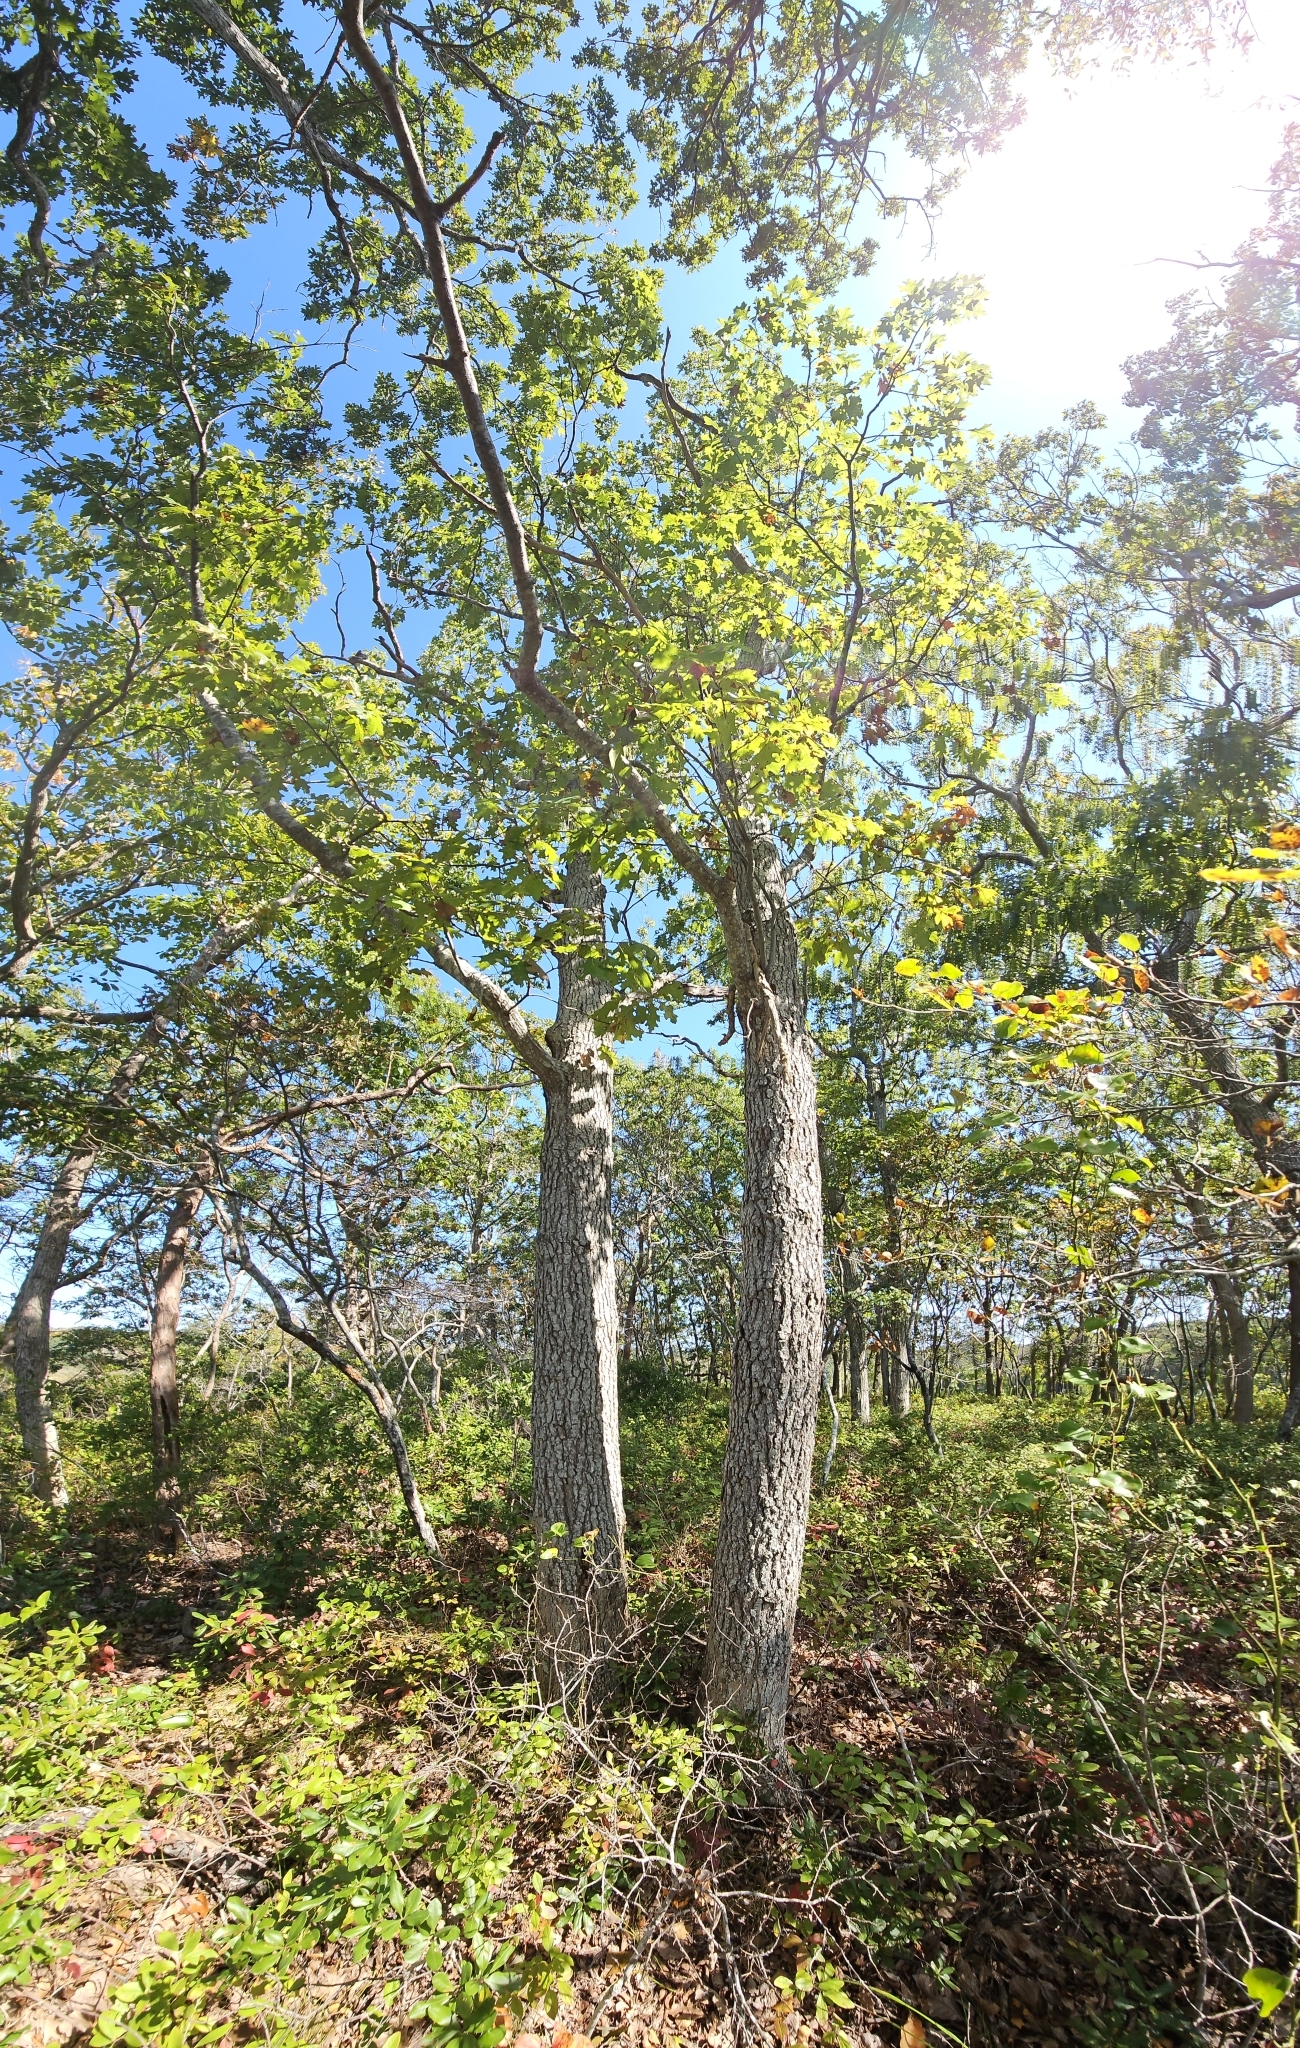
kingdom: Plantae
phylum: Tracheophyta
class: Magnoliopsida
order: Fagales
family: Fagaceae
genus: Quercus
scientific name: Quercus velutina
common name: Black oak
